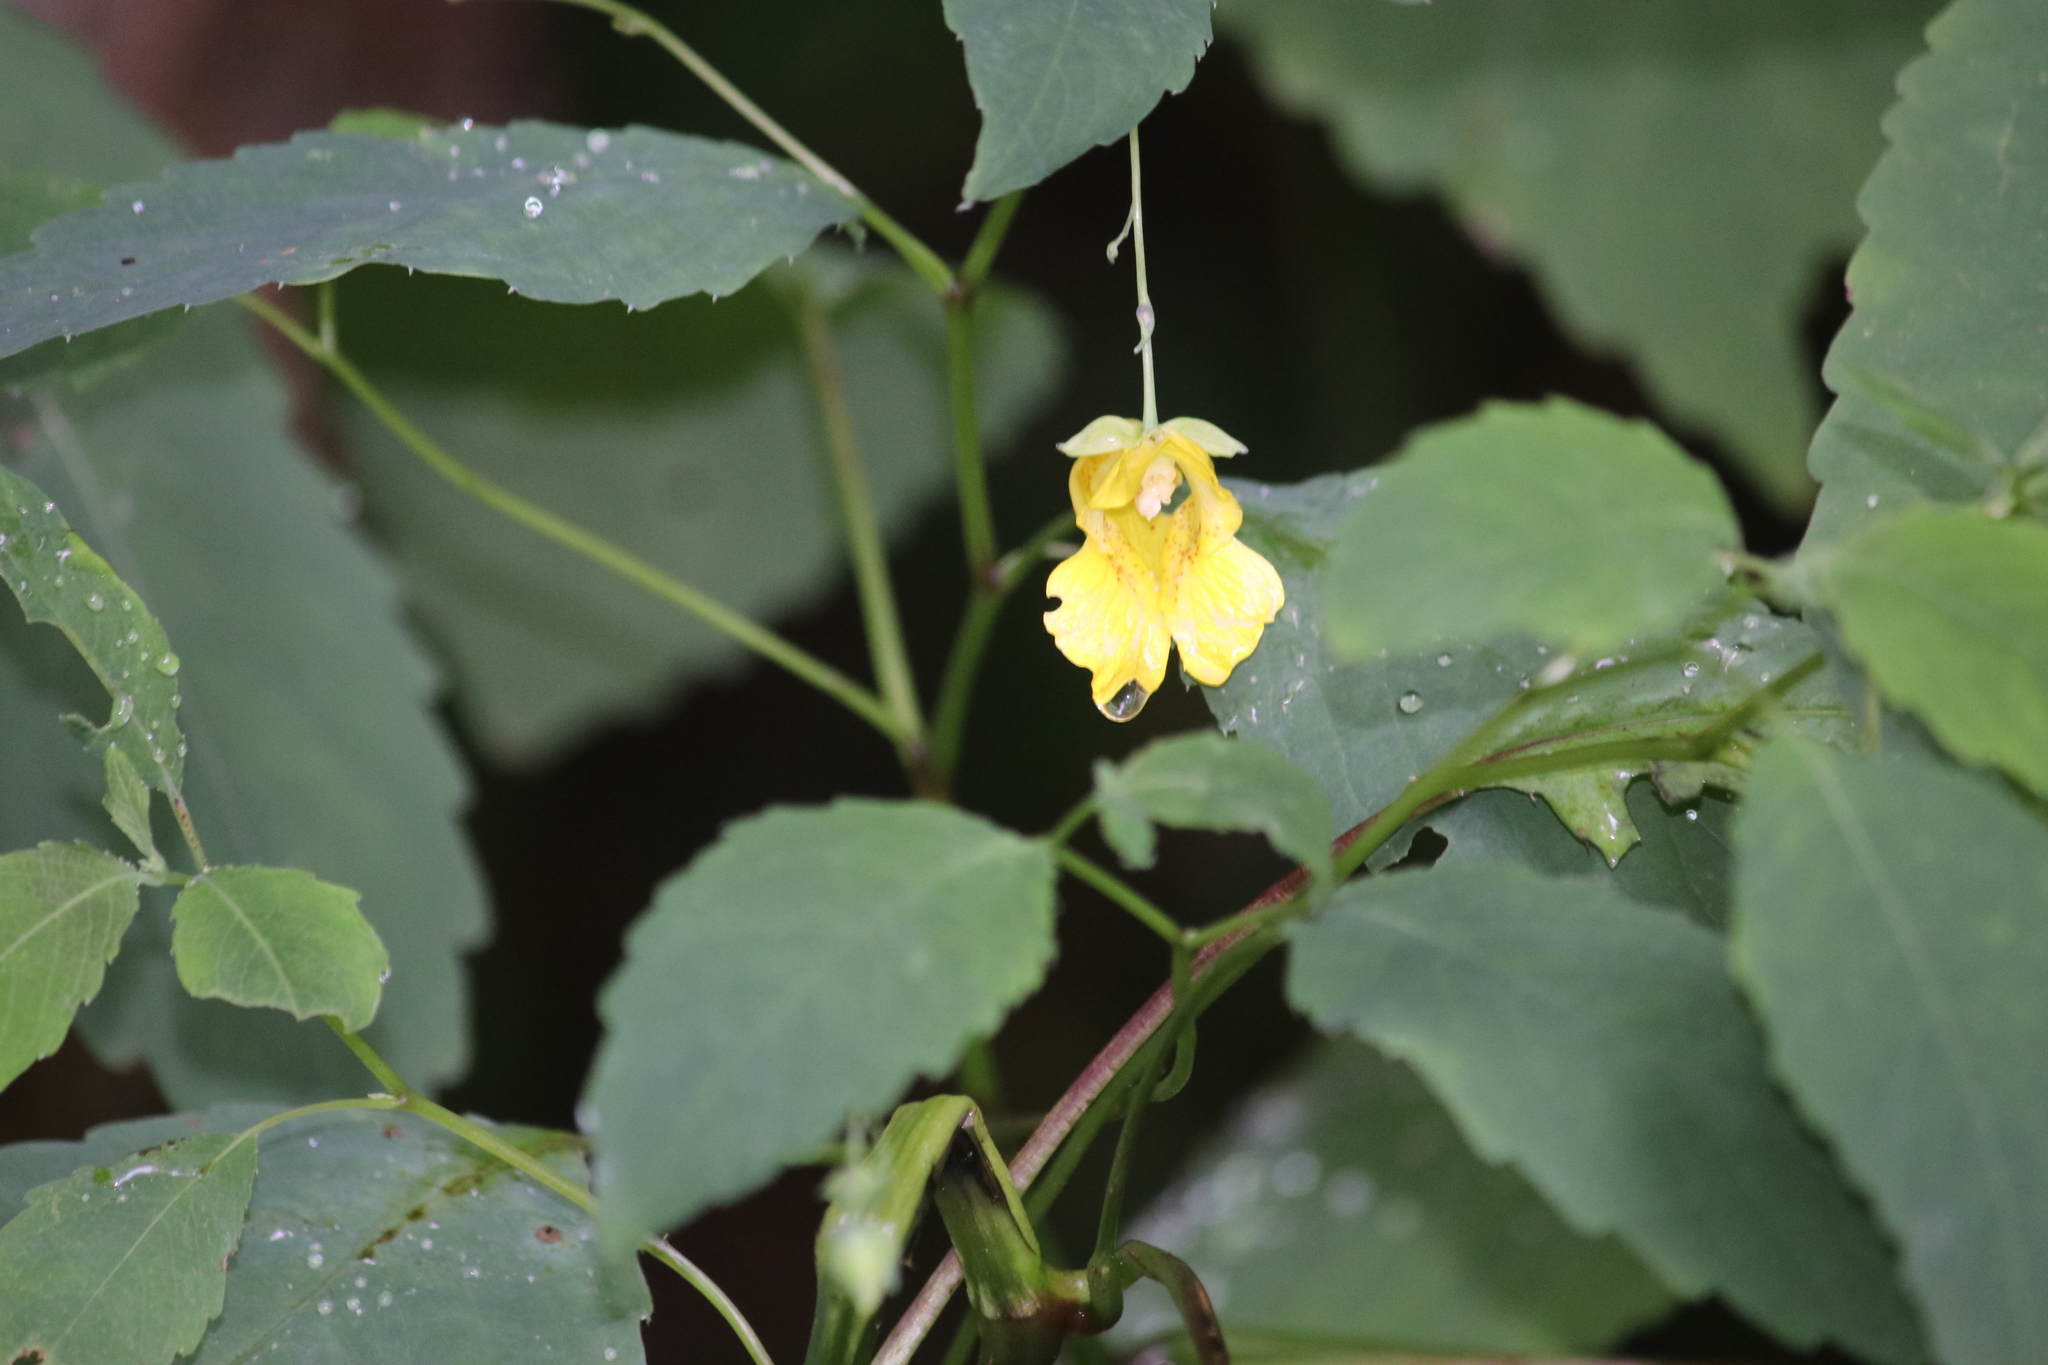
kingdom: Plantae
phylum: Tracheophyta
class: Magnoliopsida
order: Ericales
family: Balsaminaceae
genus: Impatiens
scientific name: Impatiens pallida
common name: Pale snapweed
